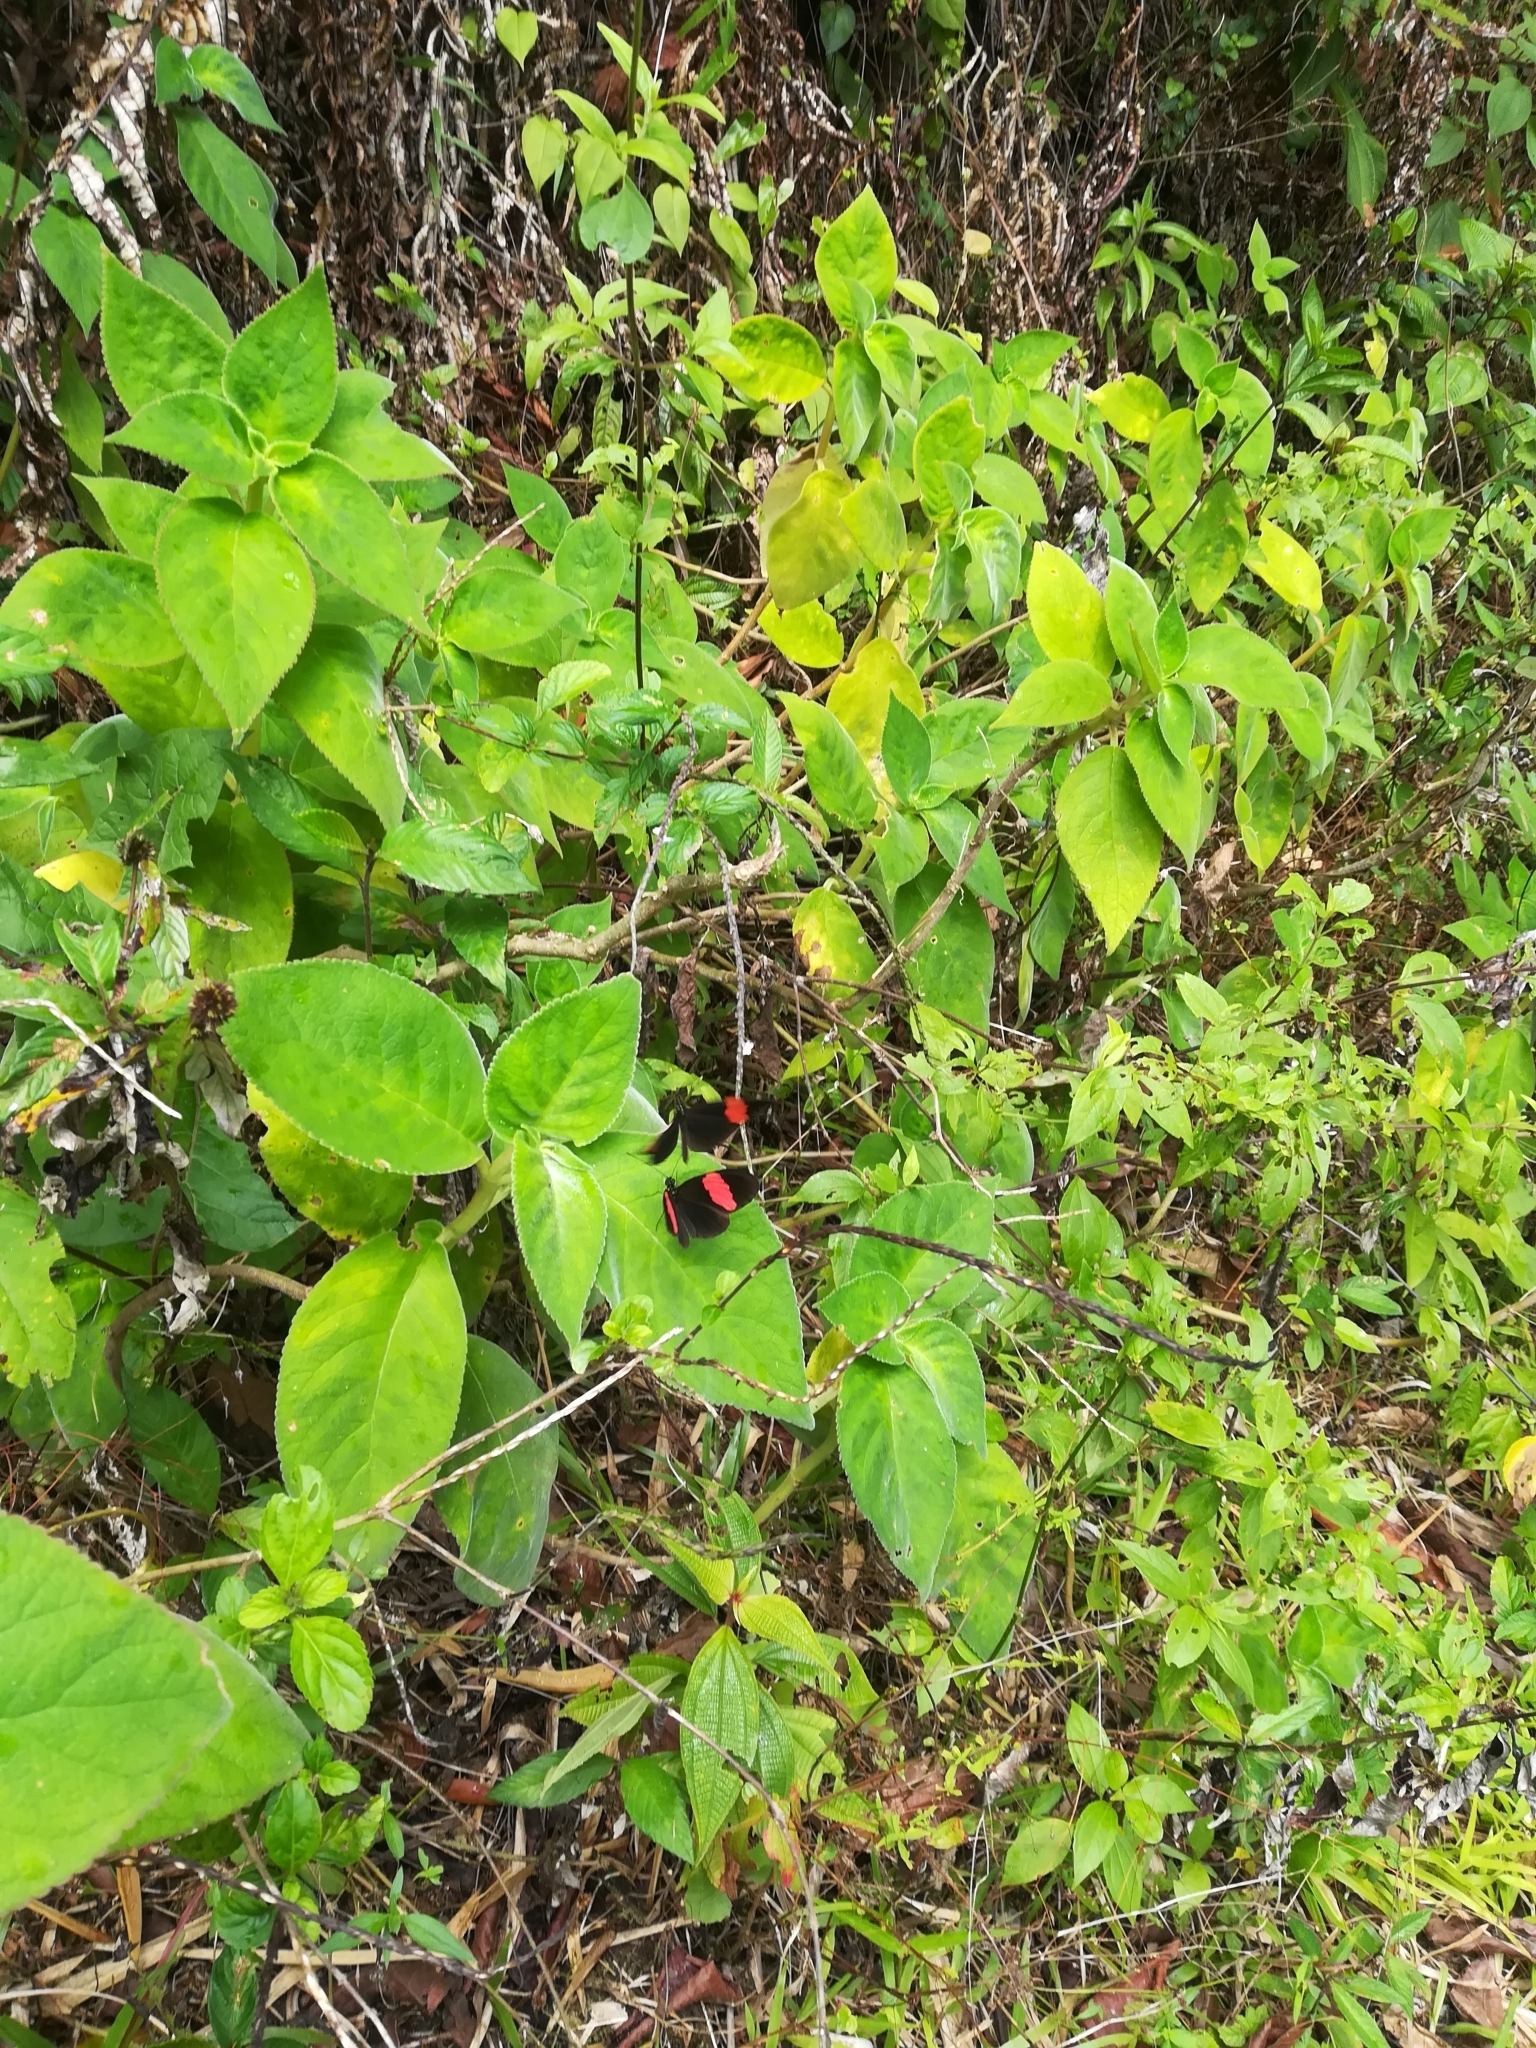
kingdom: Animalia
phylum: Arthropoda
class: Insecta
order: Lepidoptera
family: Nymphalidae
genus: Heliconius
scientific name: Heliconius erato
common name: Common patch longwing
